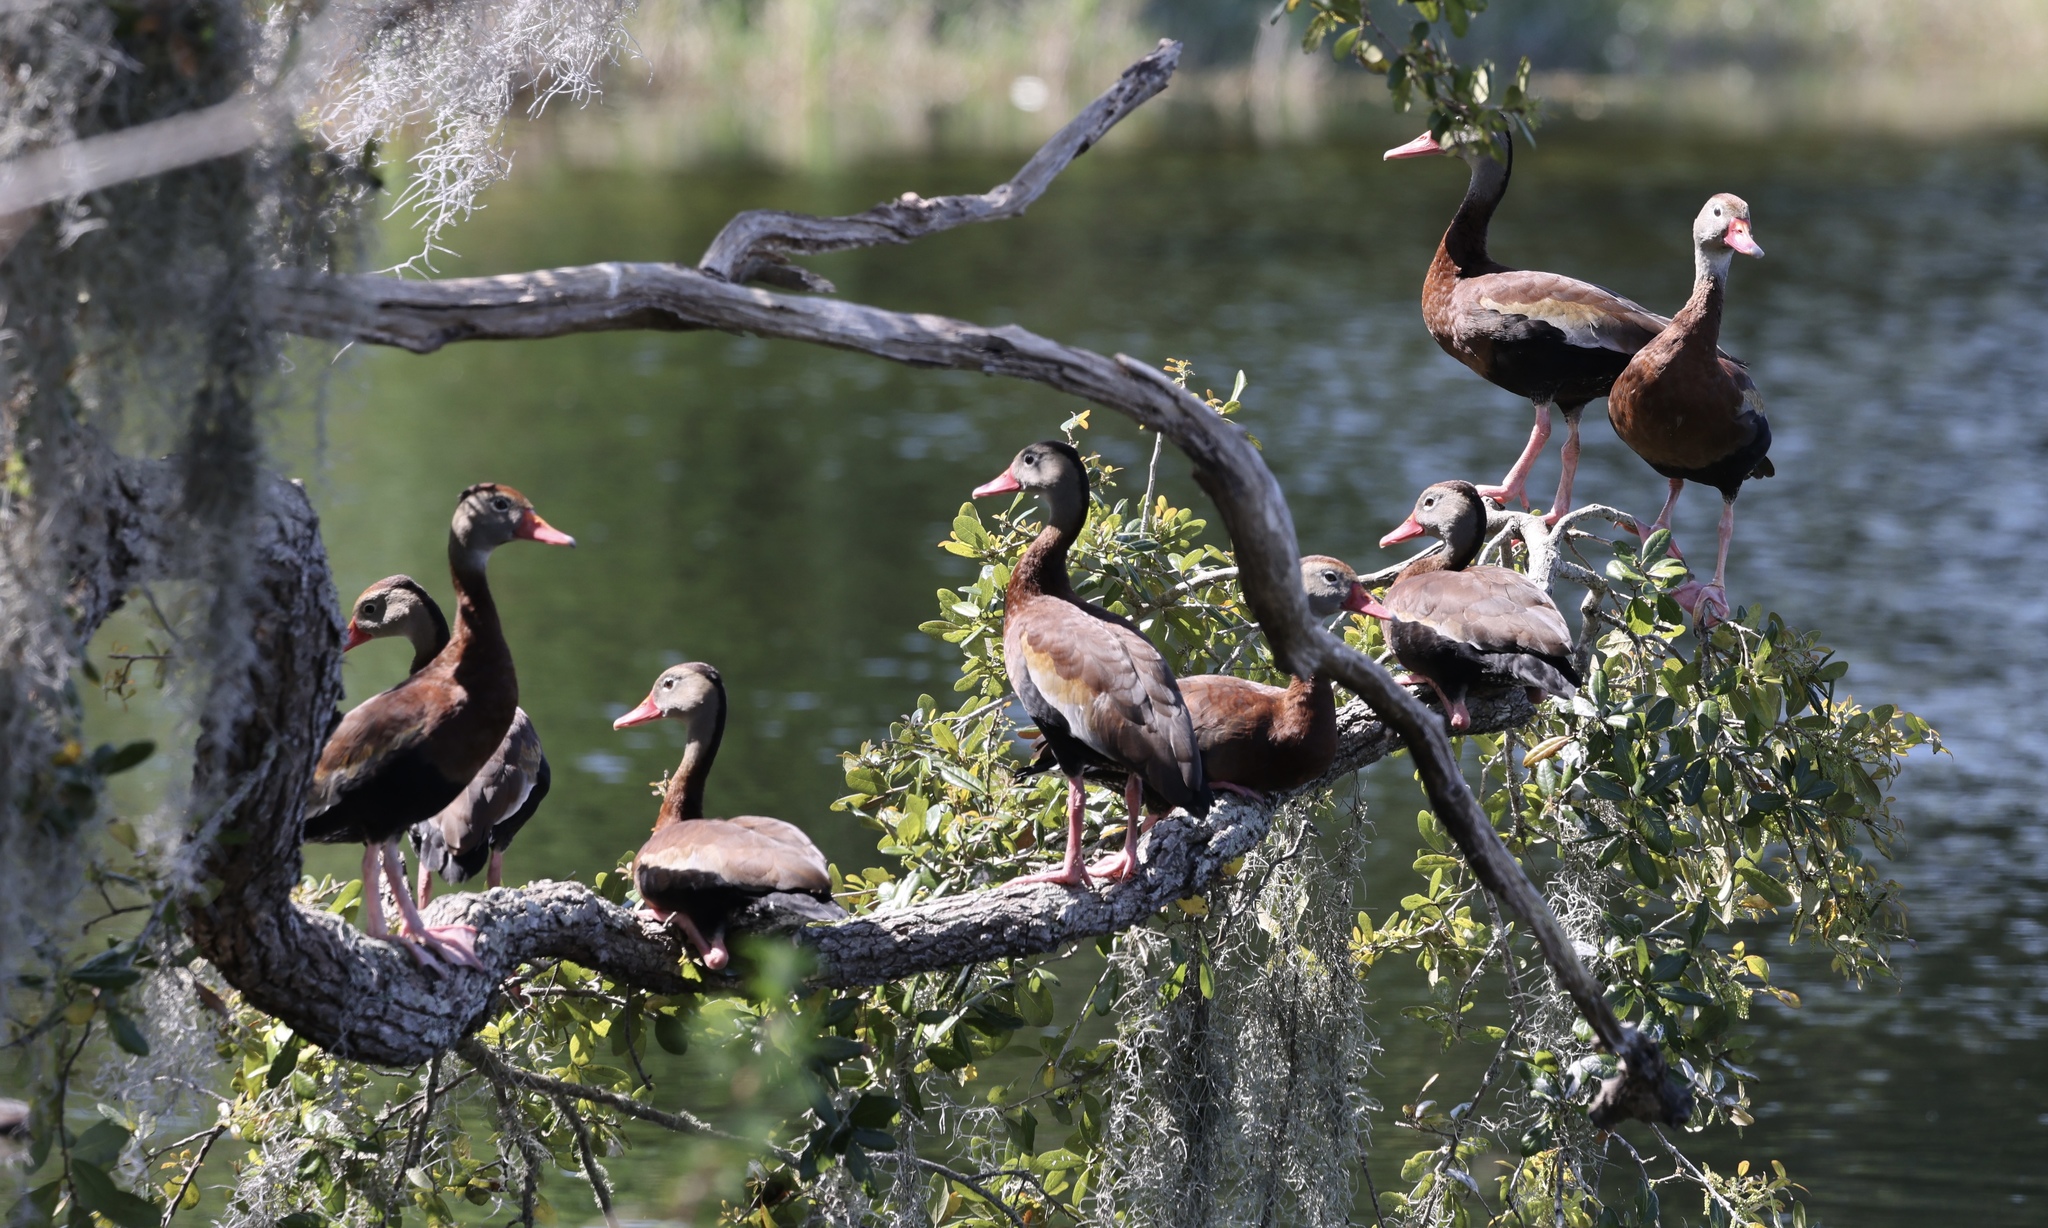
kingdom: Animalia
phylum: Chordata
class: Aves
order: Anseriformes
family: Anatidae
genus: Dendrocygna
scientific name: Dendrocygna autumnalis
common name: Black-bellied whistling duck
